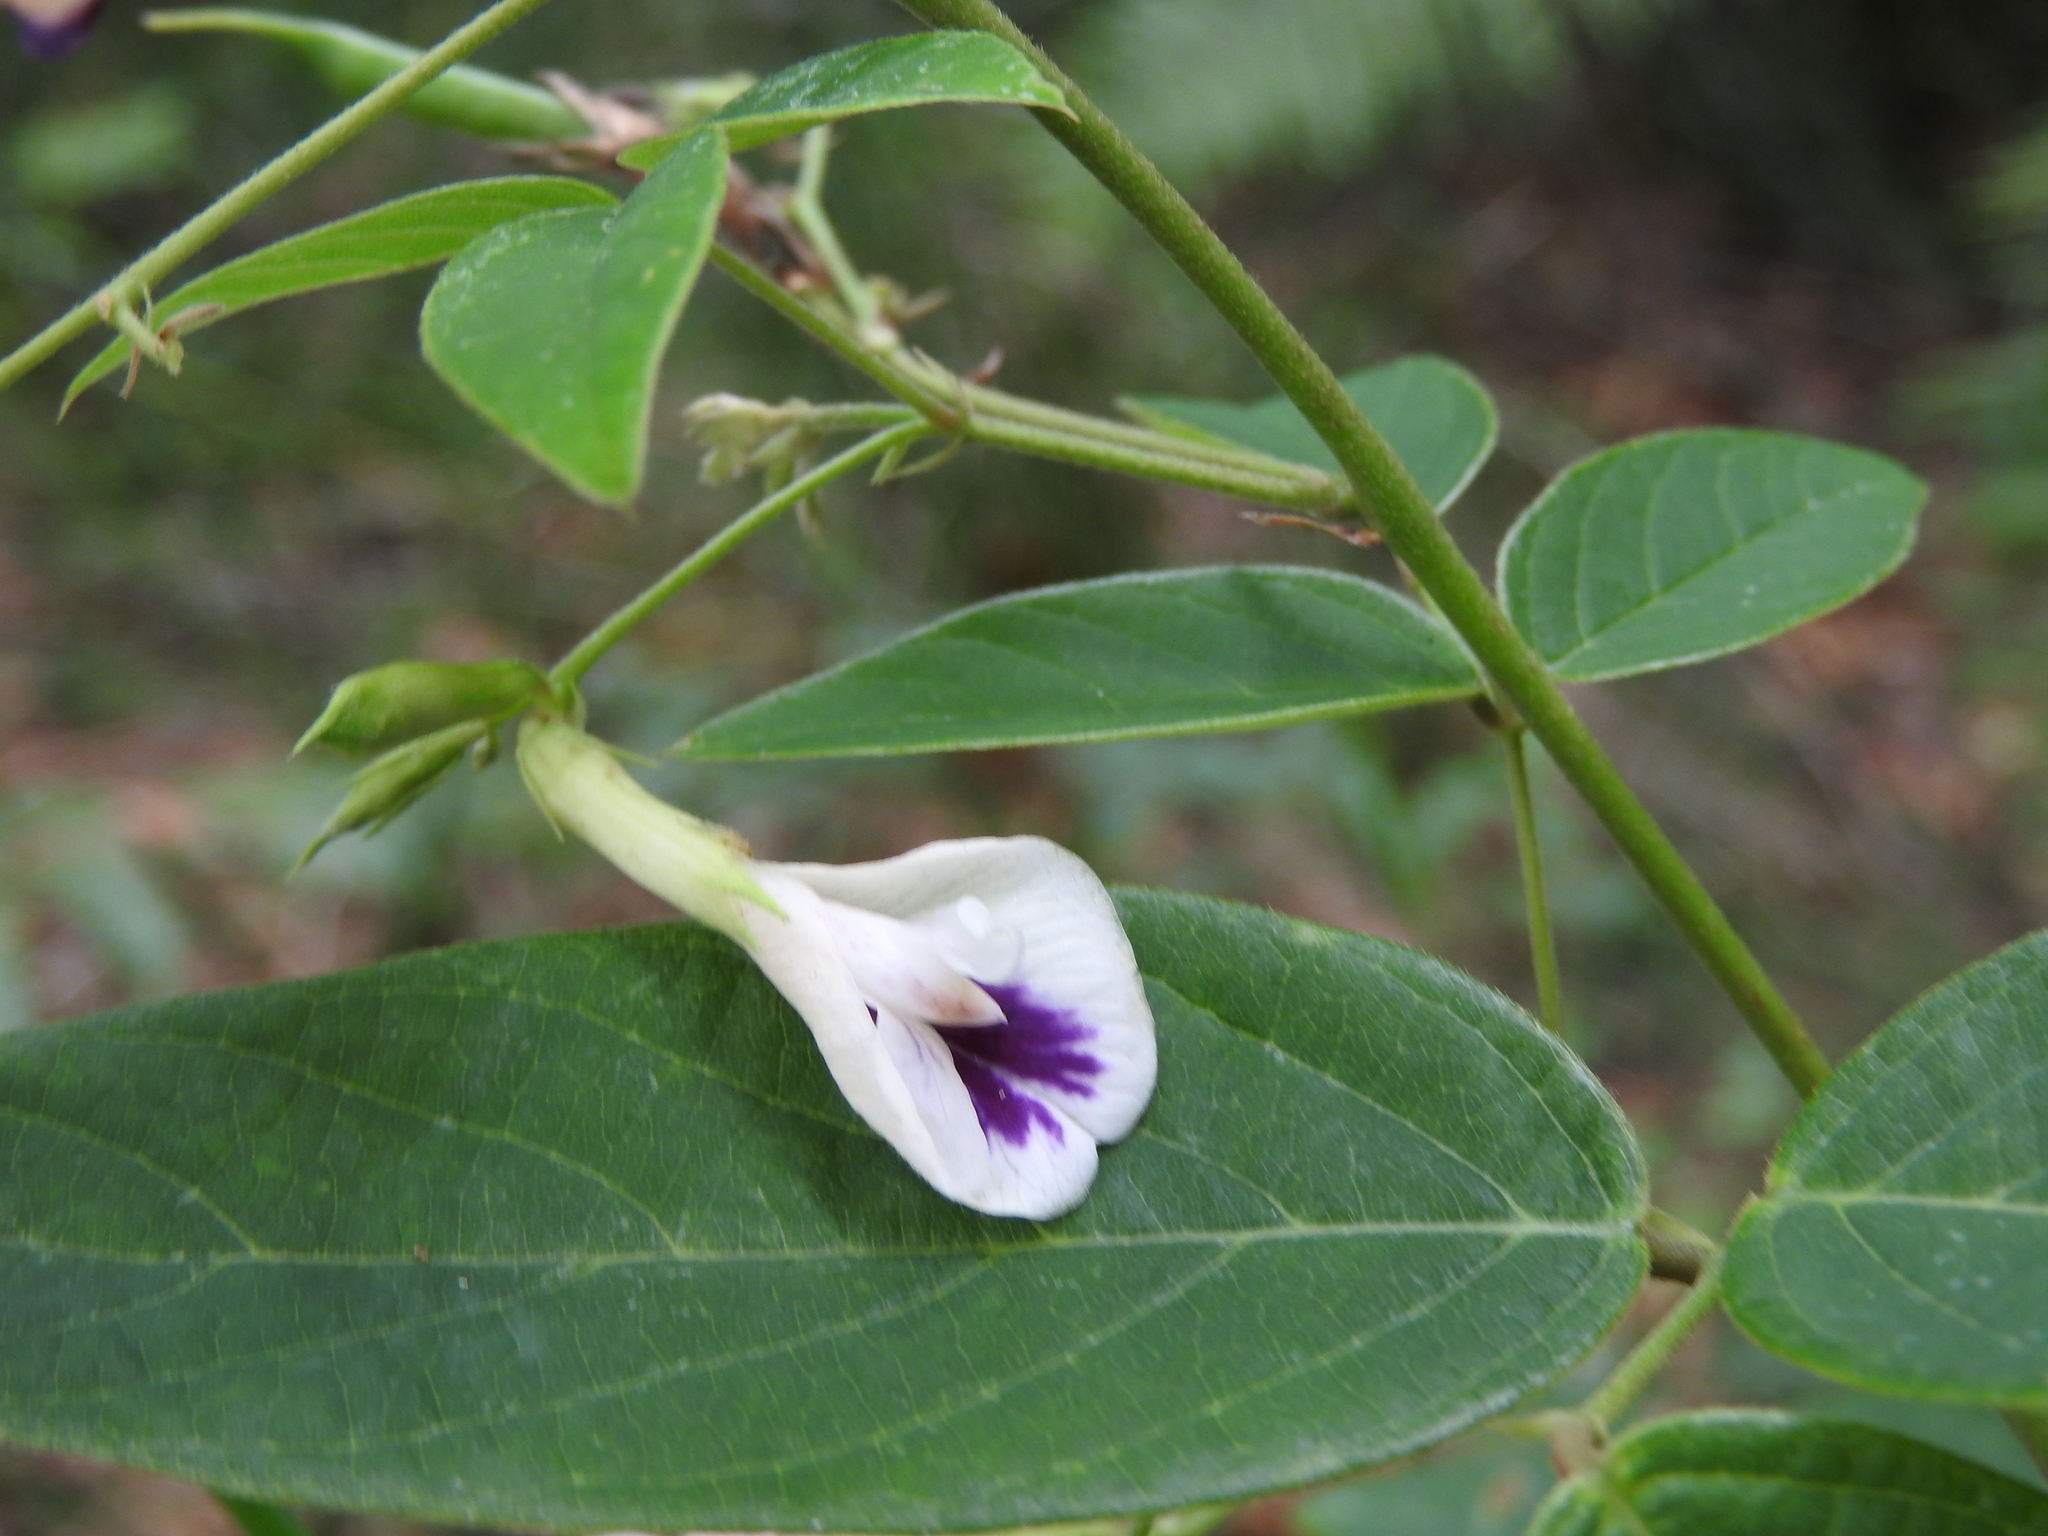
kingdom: Plantae
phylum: Tracheophyta
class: Magnoliopsida
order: Fabales
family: Fabaceae
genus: Clitoria
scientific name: Clitoria polystachya
